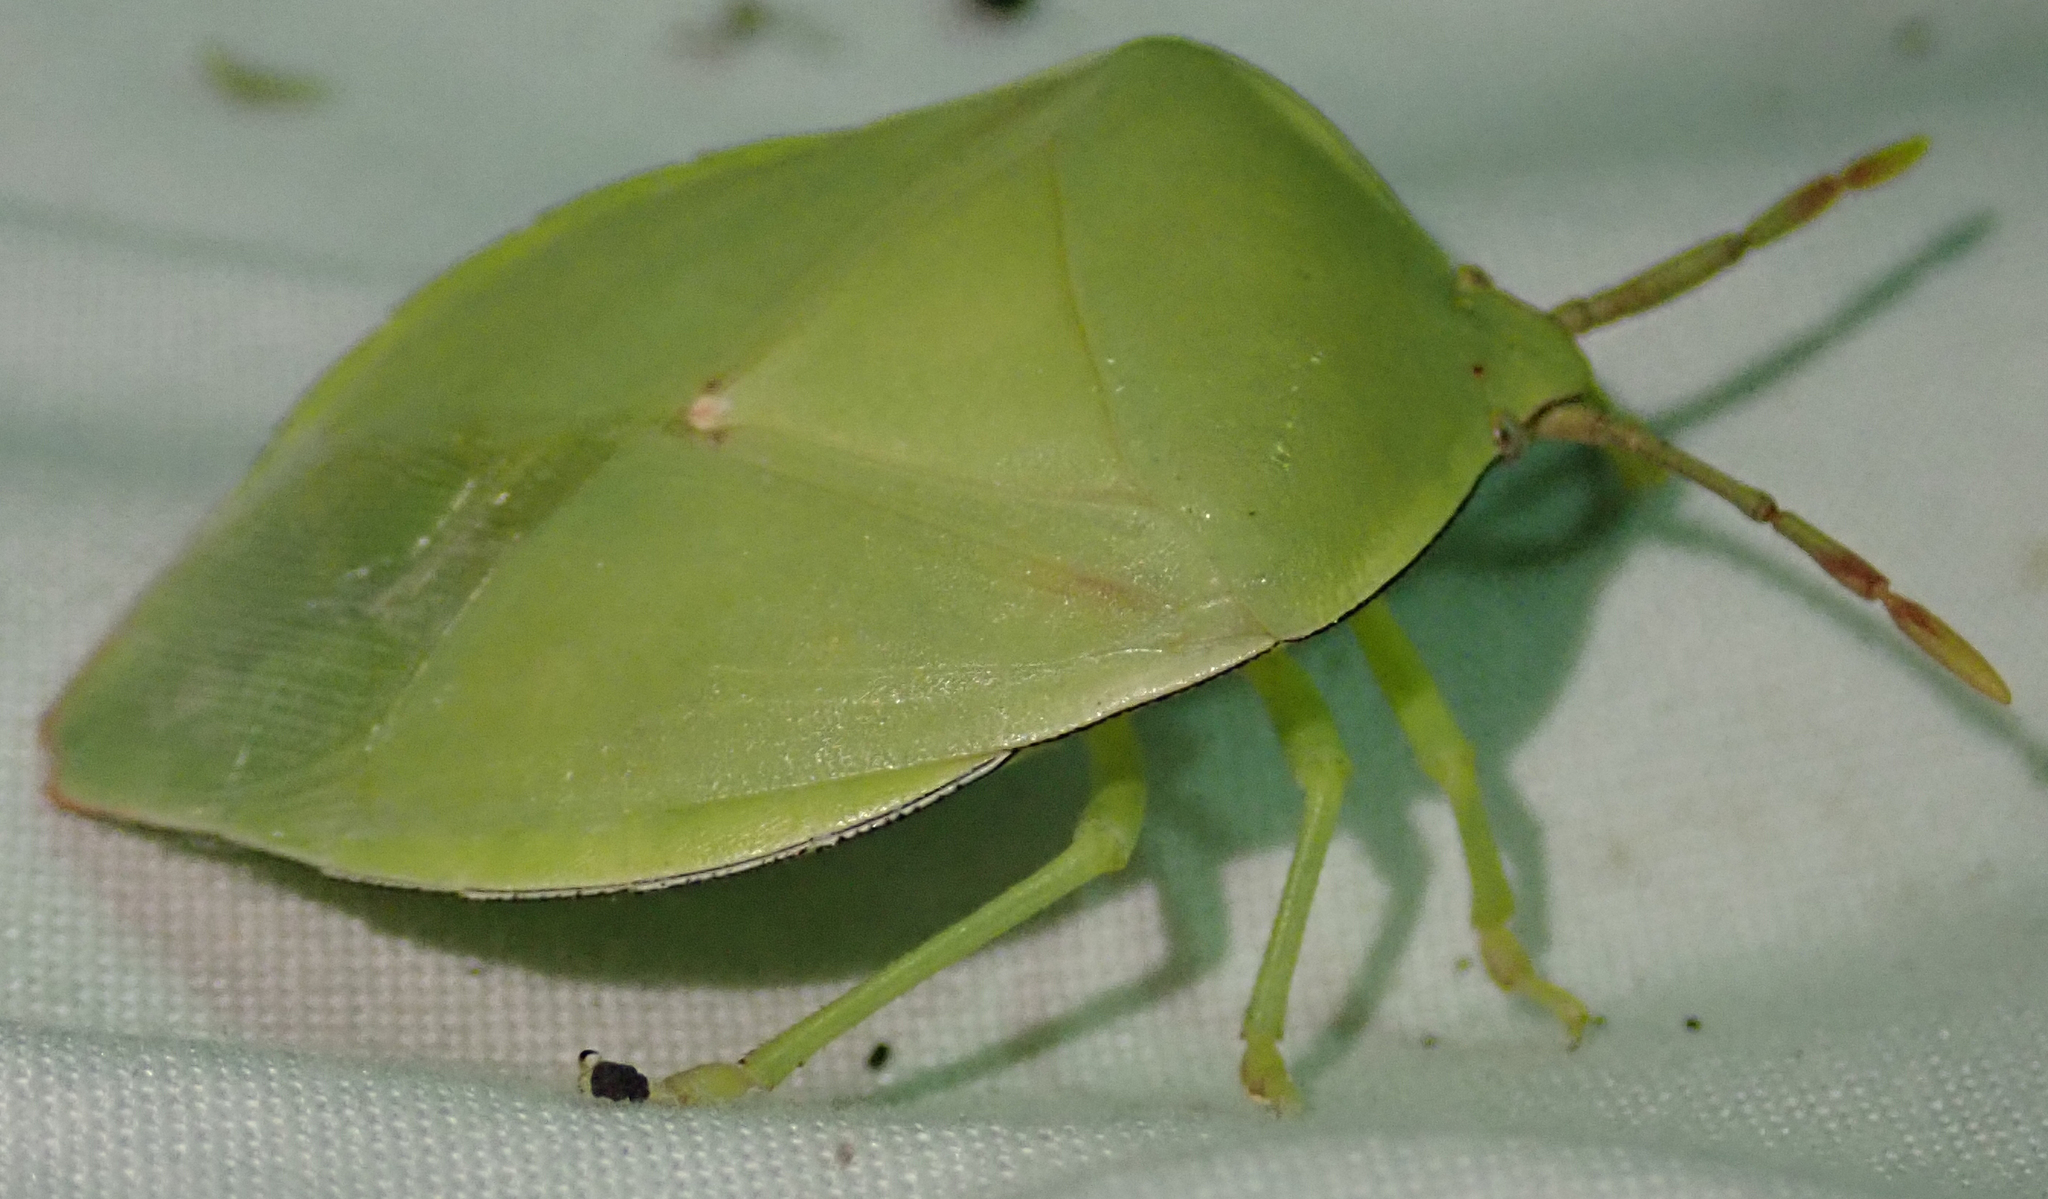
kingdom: Animalia
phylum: Arthropoda
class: Insecta
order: Hemiptera
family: Tessaratomidae
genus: Encosternum
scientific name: Encosternum delegorguei
